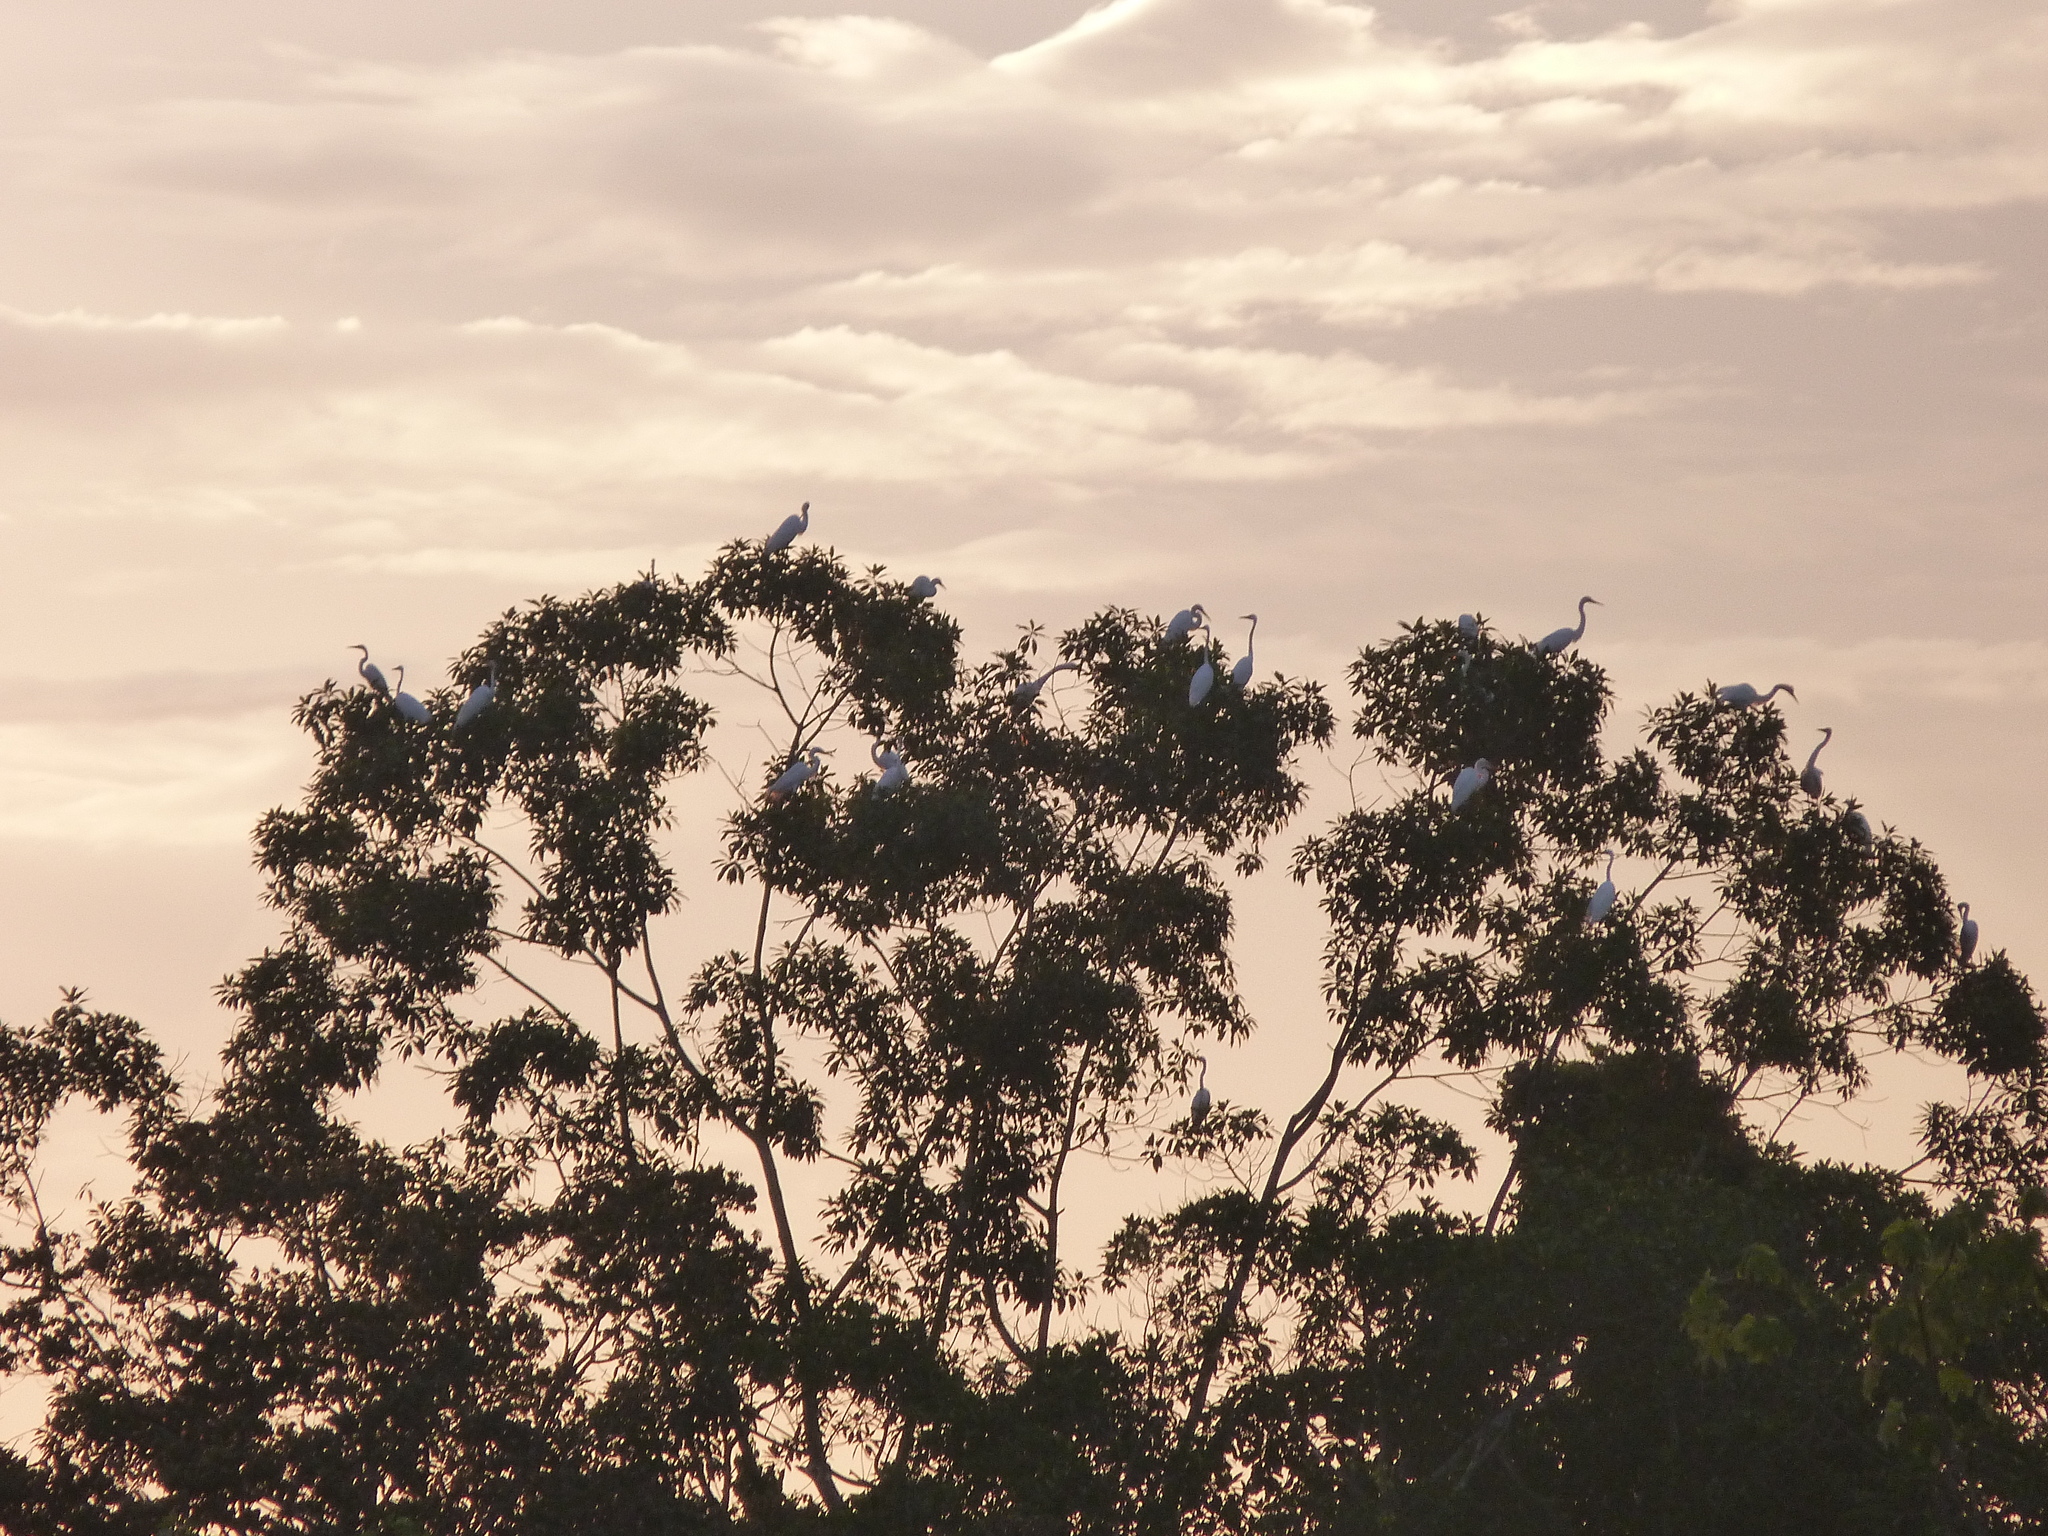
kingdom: Animalia
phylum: Chordata
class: Aves
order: Pelecaniformes
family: Ardeidae
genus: Ardea
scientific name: Ardea alba
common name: Great egret
